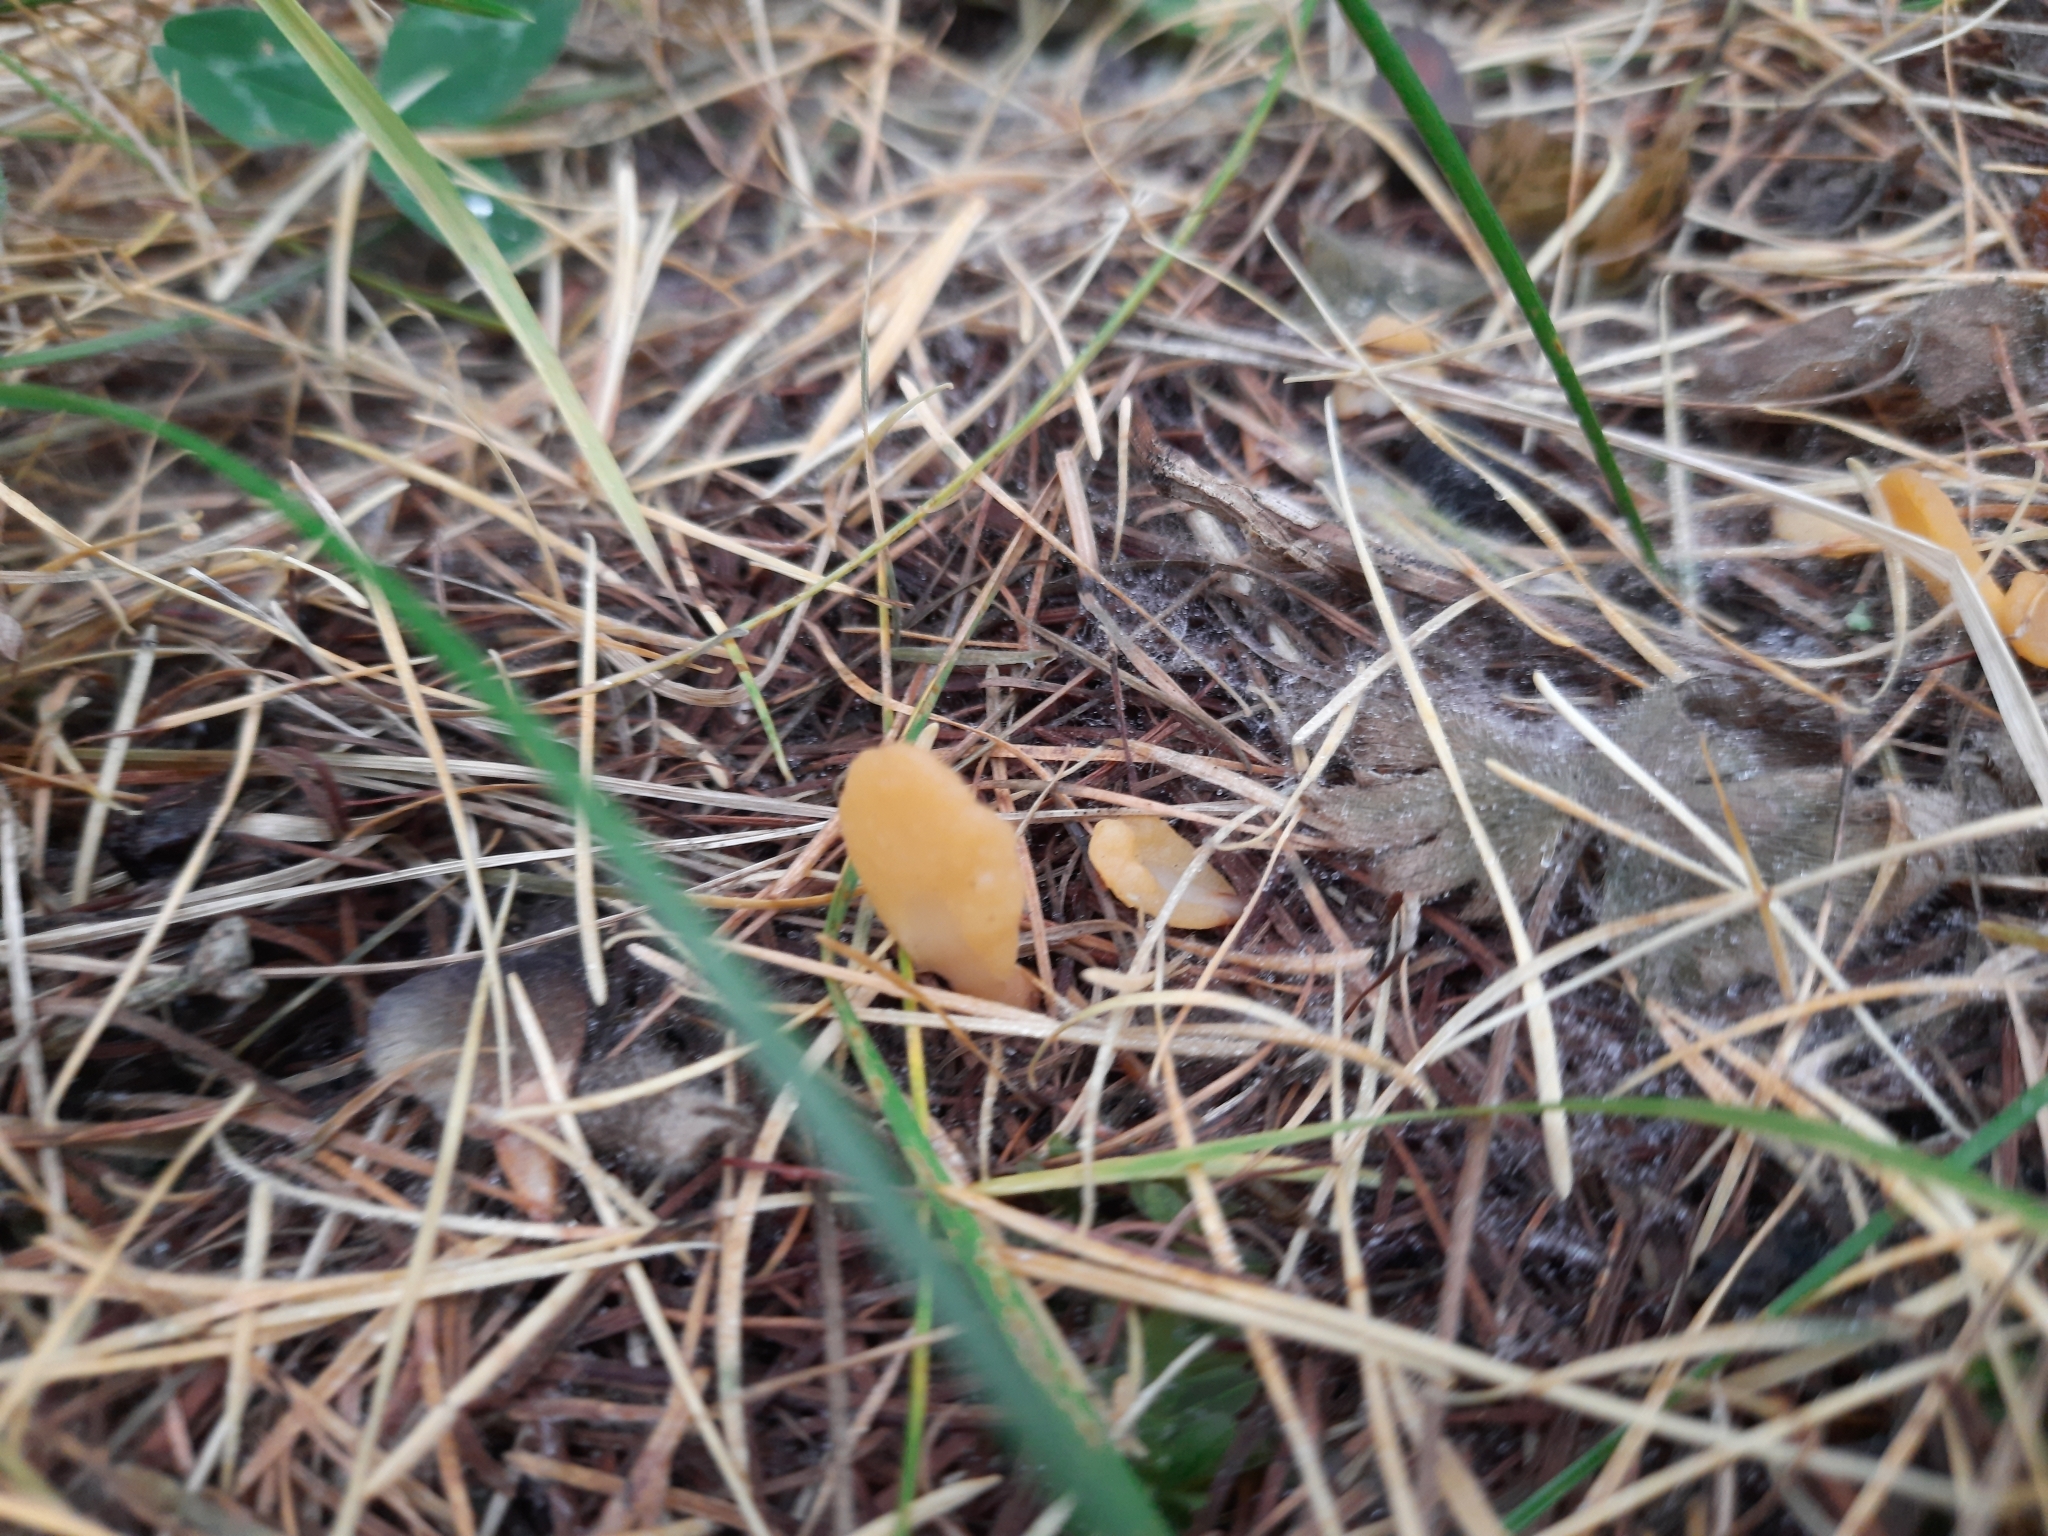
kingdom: Fungi
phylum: Ascomycota
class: Leotiomycetes
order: Rhytismatales
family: Cudoniaceae
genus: Spathularia
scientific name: Spathularia flavida
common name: Yellow fan
